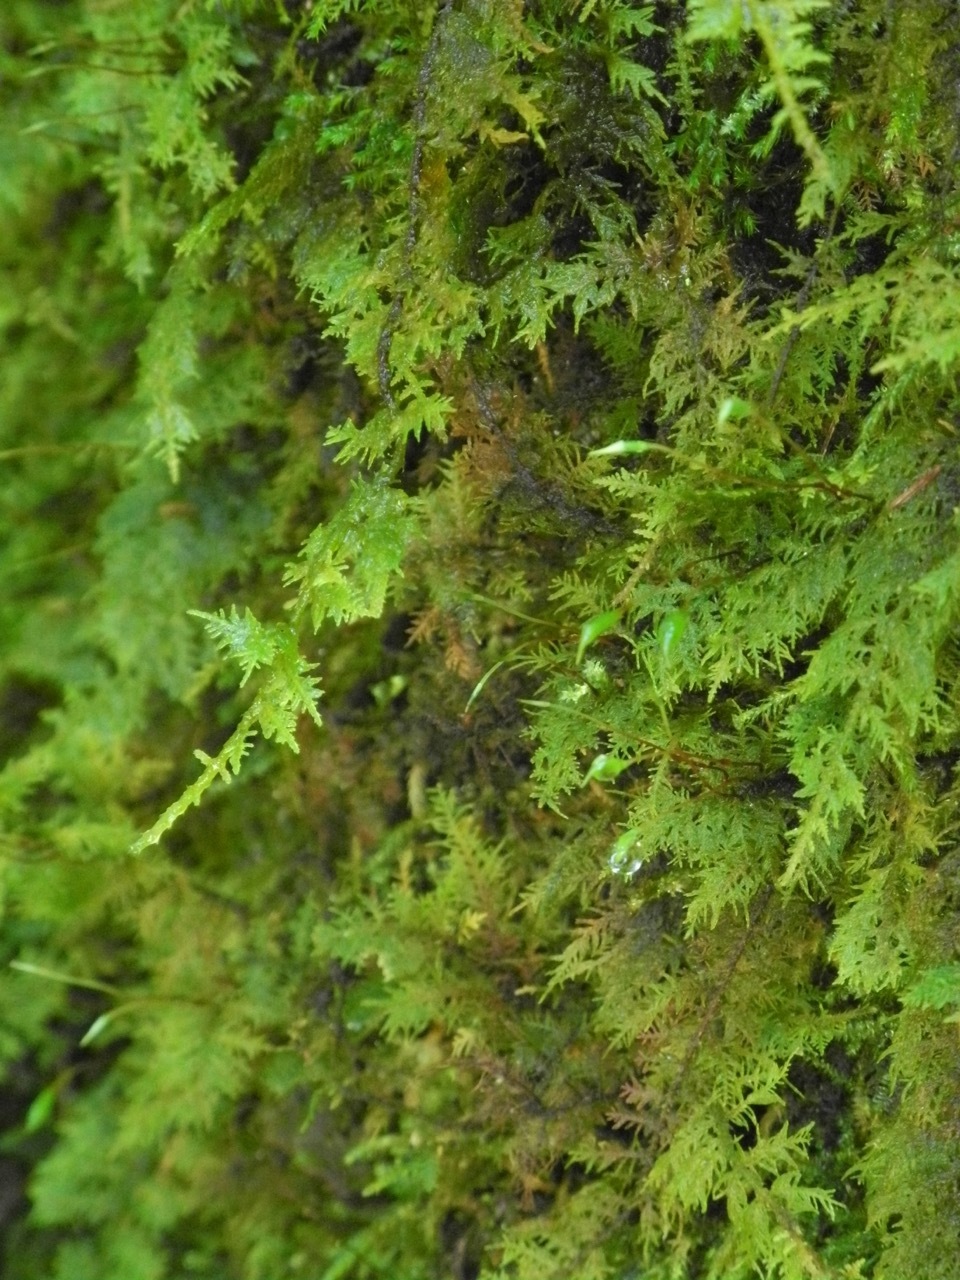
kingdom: Plantae
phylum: Bryophyta
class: Bryopsida
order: Hypnales
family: Thuidiaceae
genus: Thuidium
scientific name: Thuidium delicatulum
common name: Delicate fern moss
